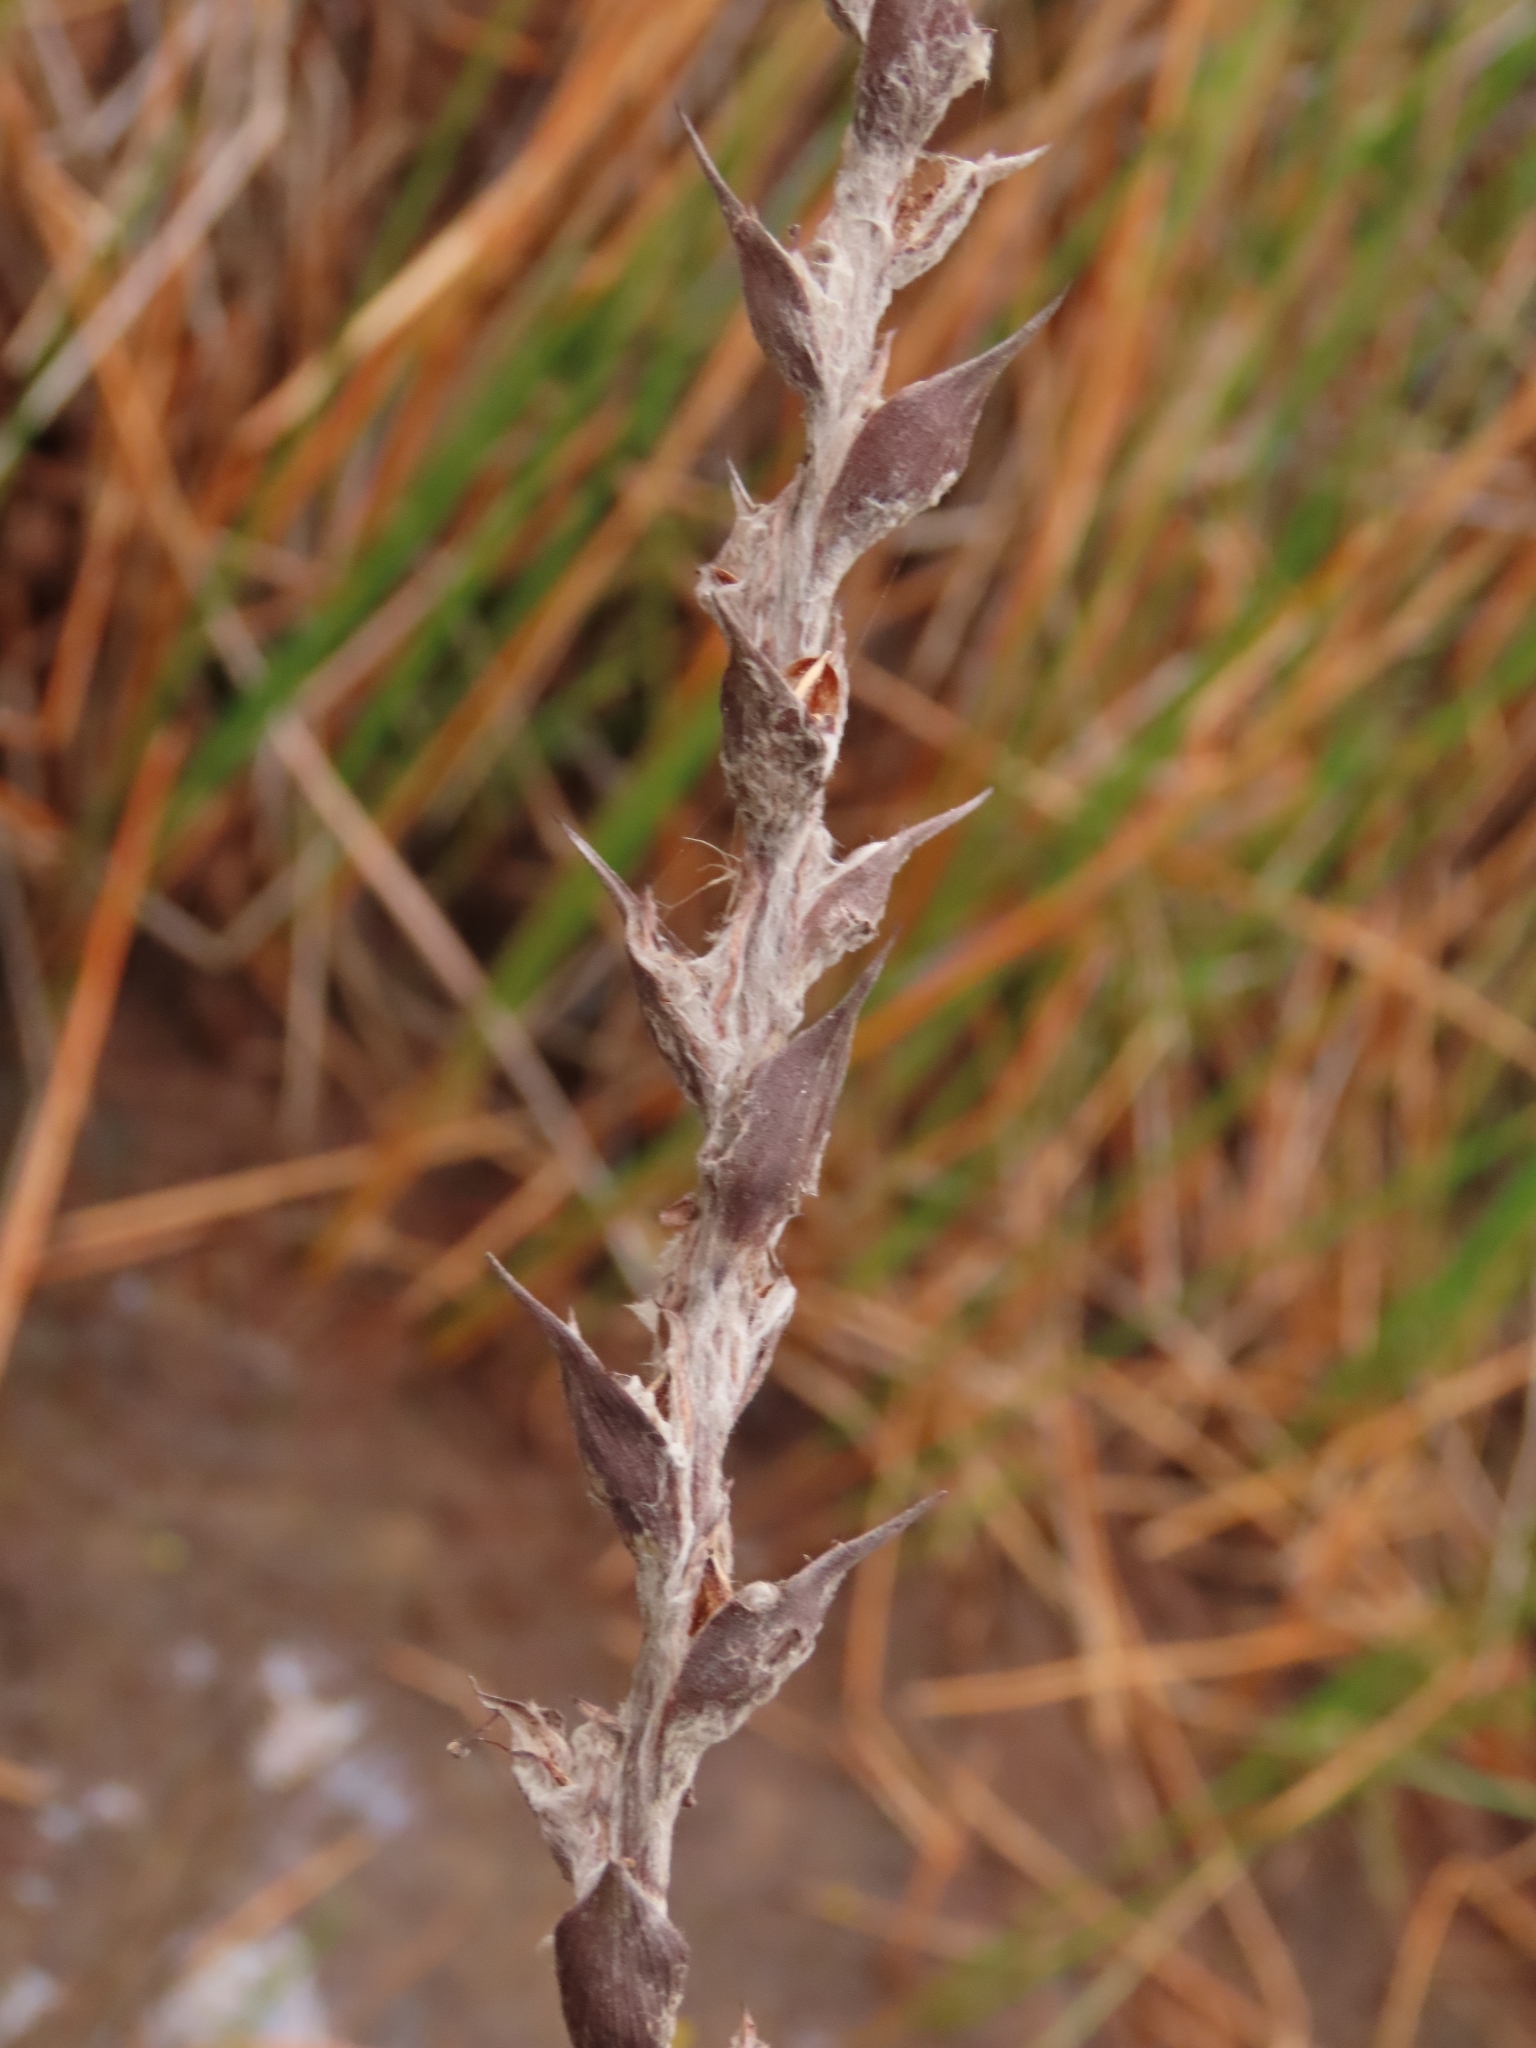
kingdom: Plantae
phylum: Tracheophyta
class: Liliopsida
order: Commelinales
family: Philydraceae
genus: Philydrum
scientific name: Philydrum lanuginosum
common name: Woolly frog's mouth
